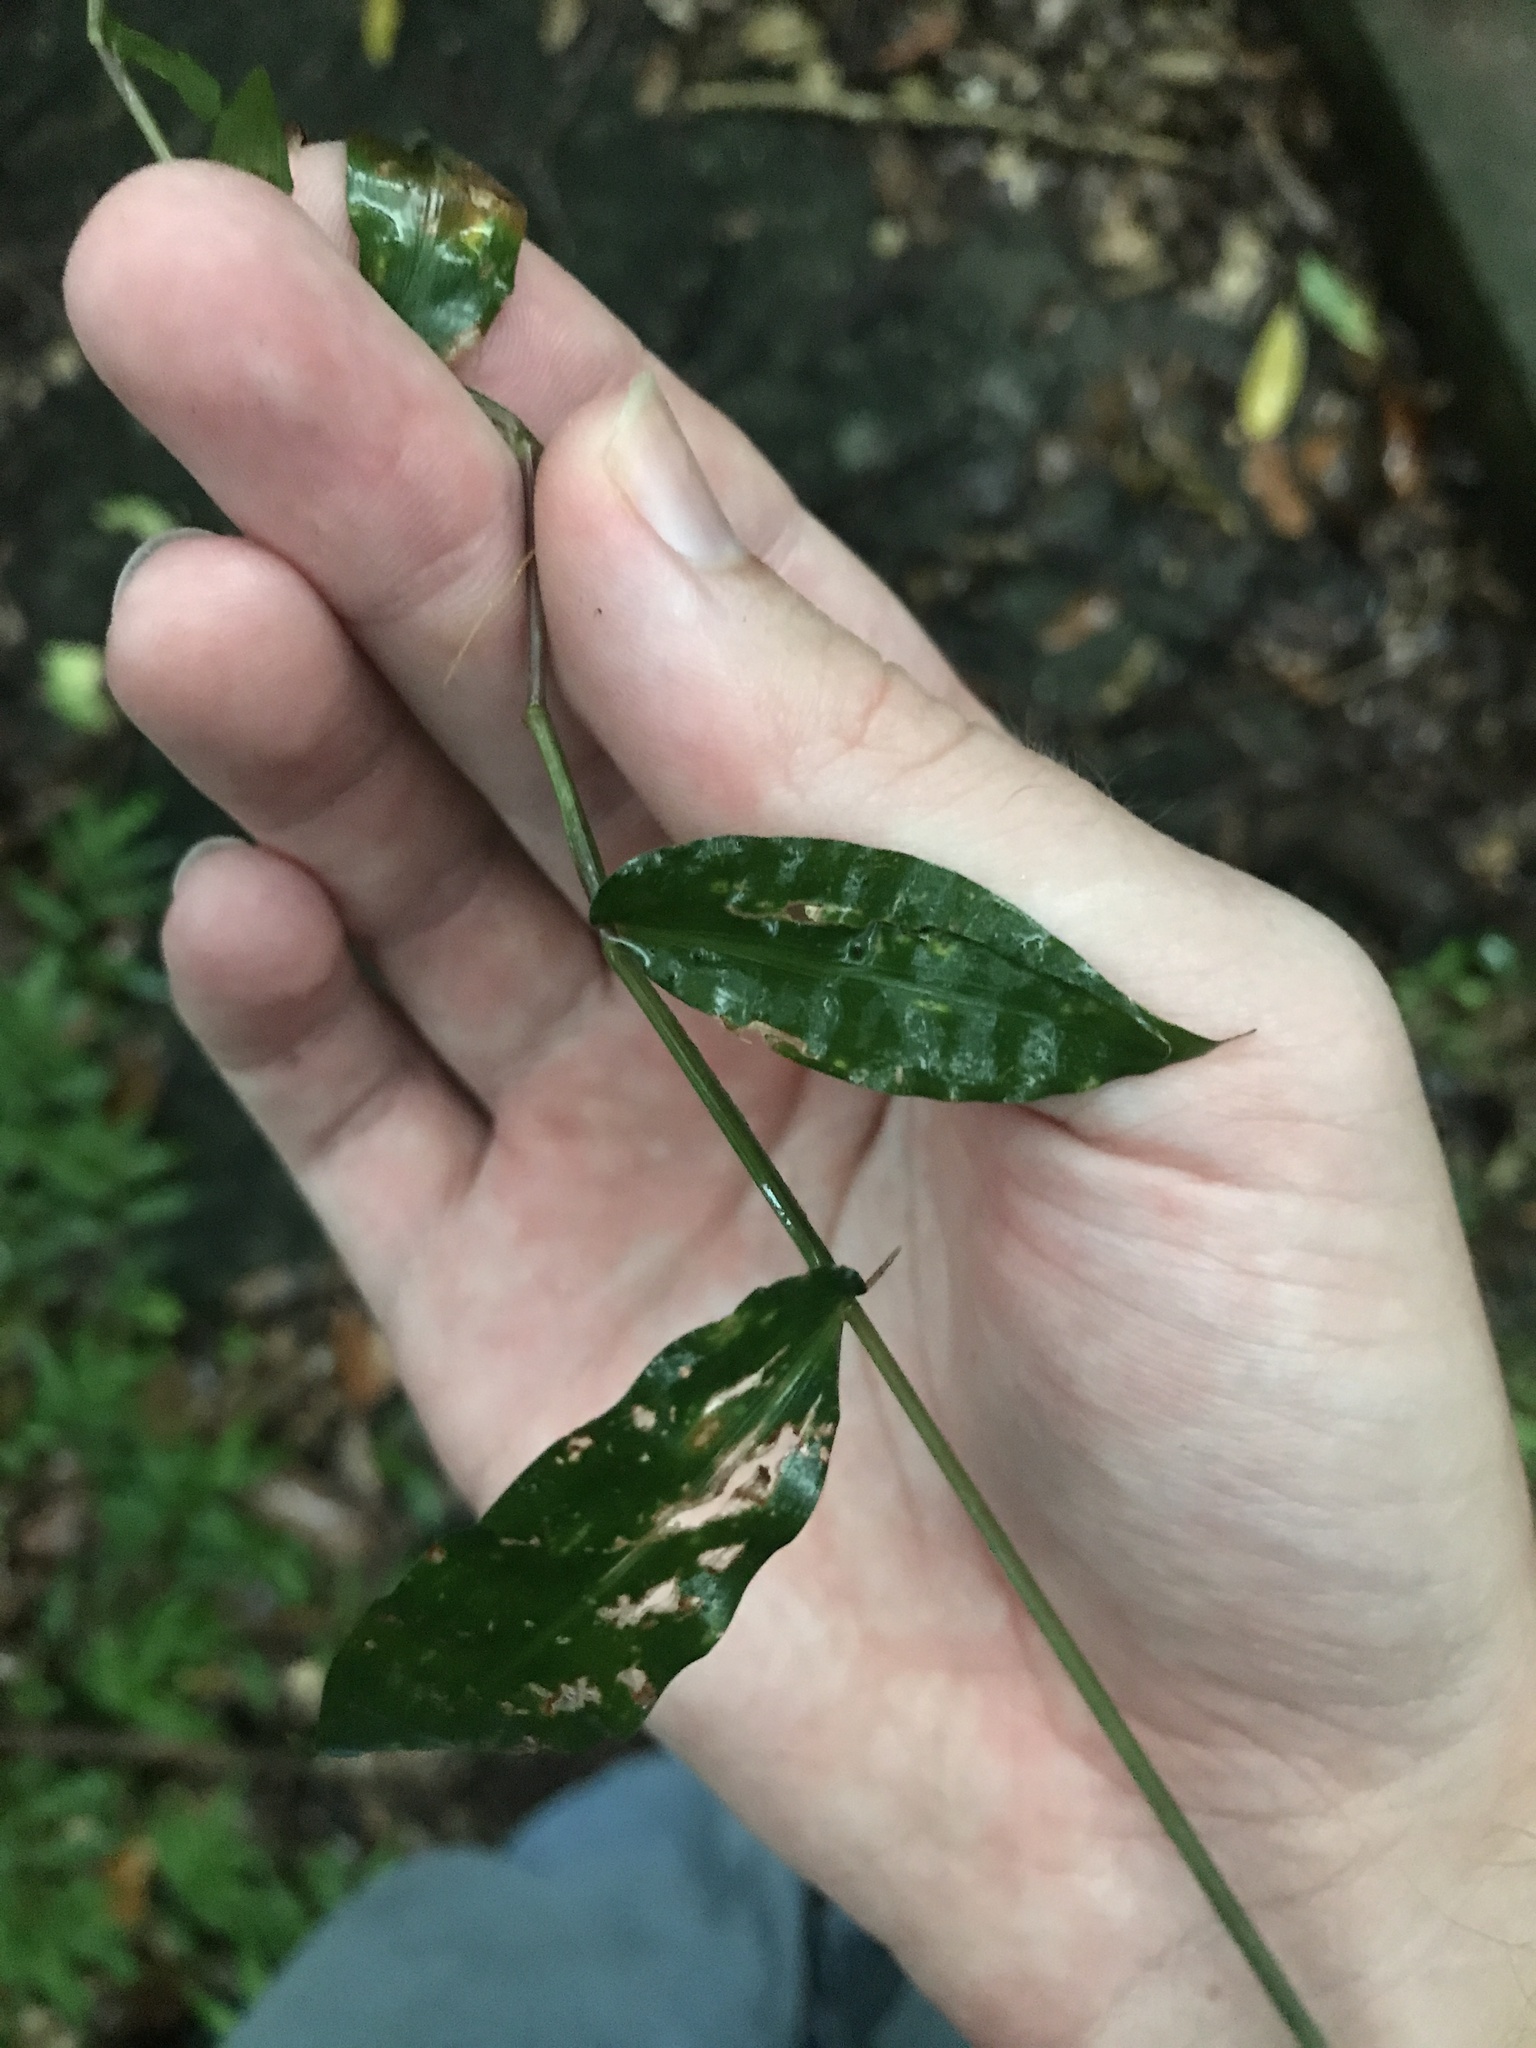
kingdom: Plantae
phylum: Tracheophyta
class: Liliopsida
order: Poales
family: Poaceae
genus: Oplismenus
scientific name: Oplismenus undulatifolius
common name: Wavyleaf basketgrass
